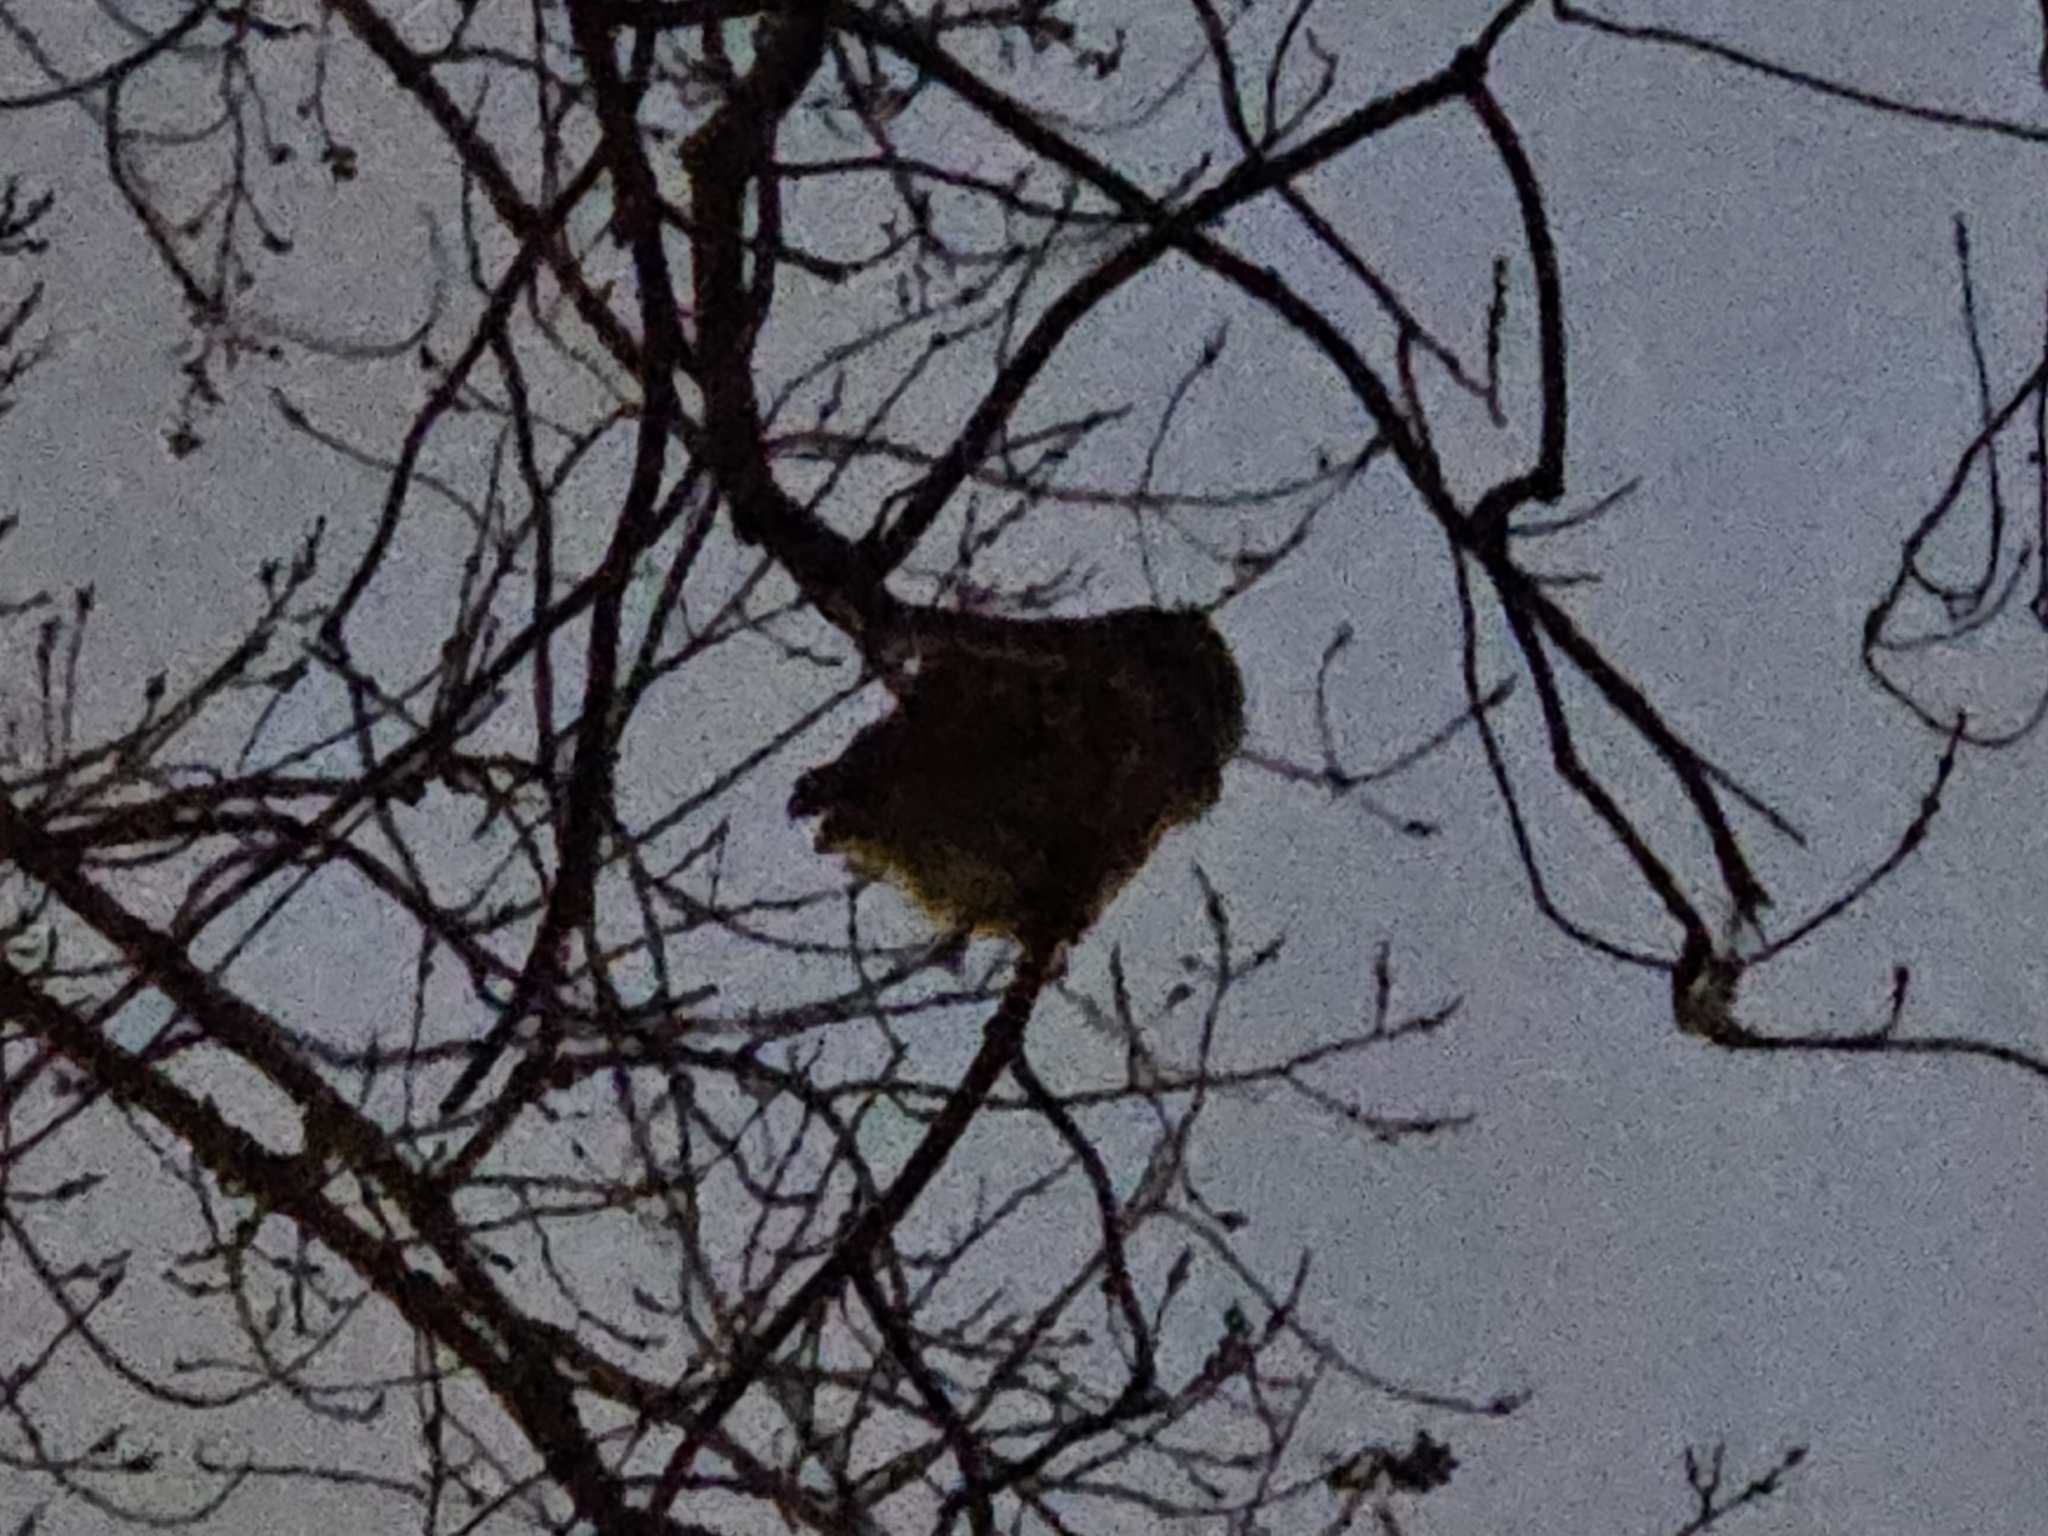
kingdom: Animalia
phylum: Chordata
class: Aves
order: Strigiformes
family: Strigidae
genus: Megascops
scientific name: Megascops asio
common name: Eastern screech-owl
